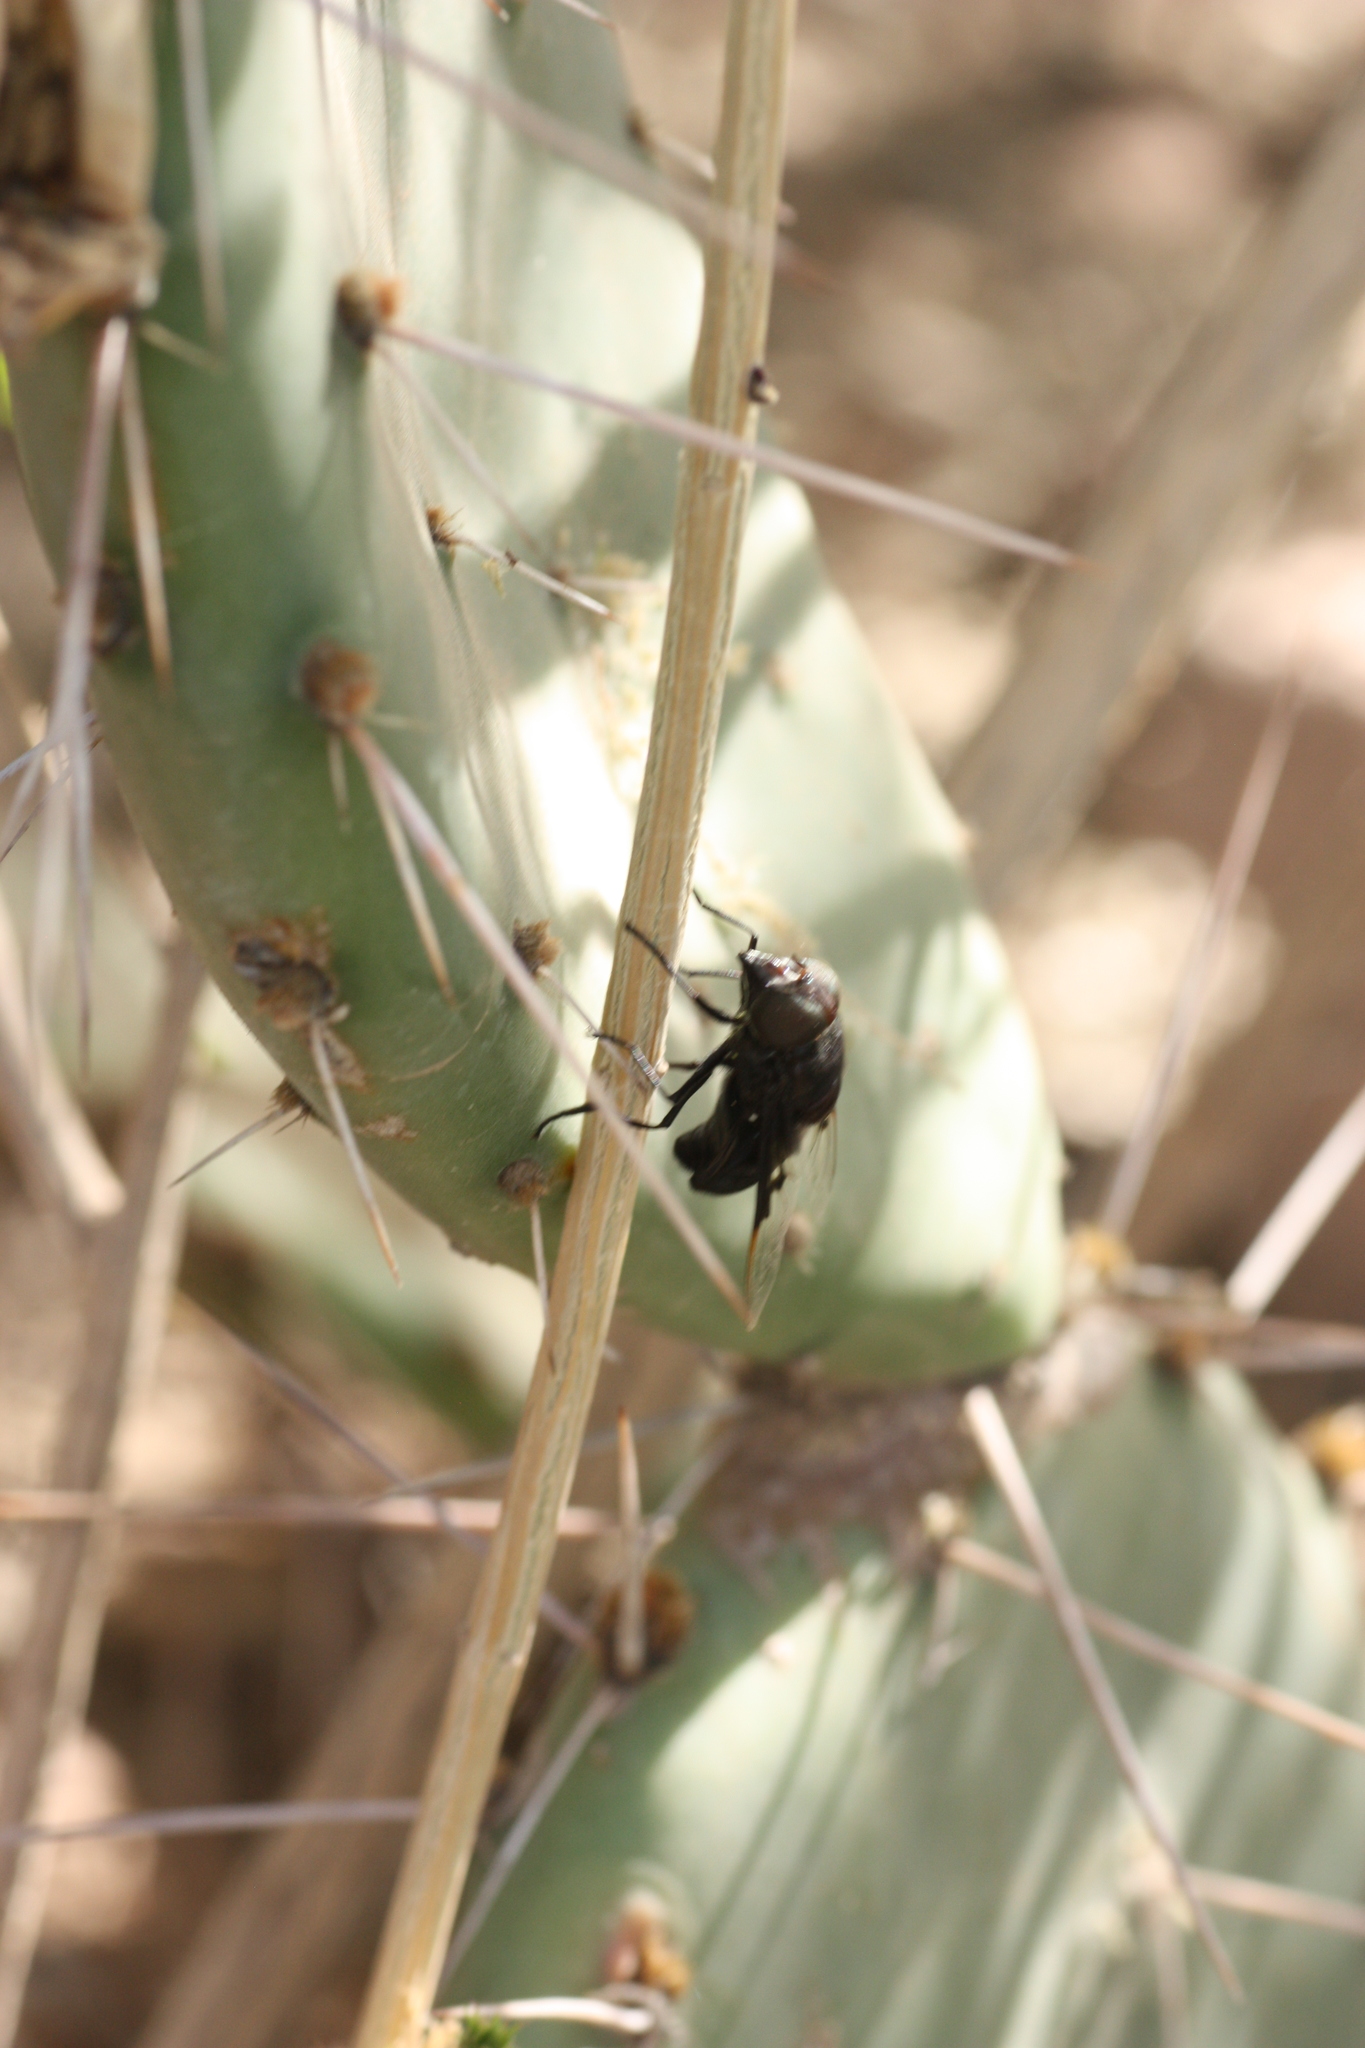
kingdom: Animalia
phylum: Arthropoda
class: Insecta
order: Diptera
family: Syrphidae
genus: Copestylum
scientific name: Copestylum
